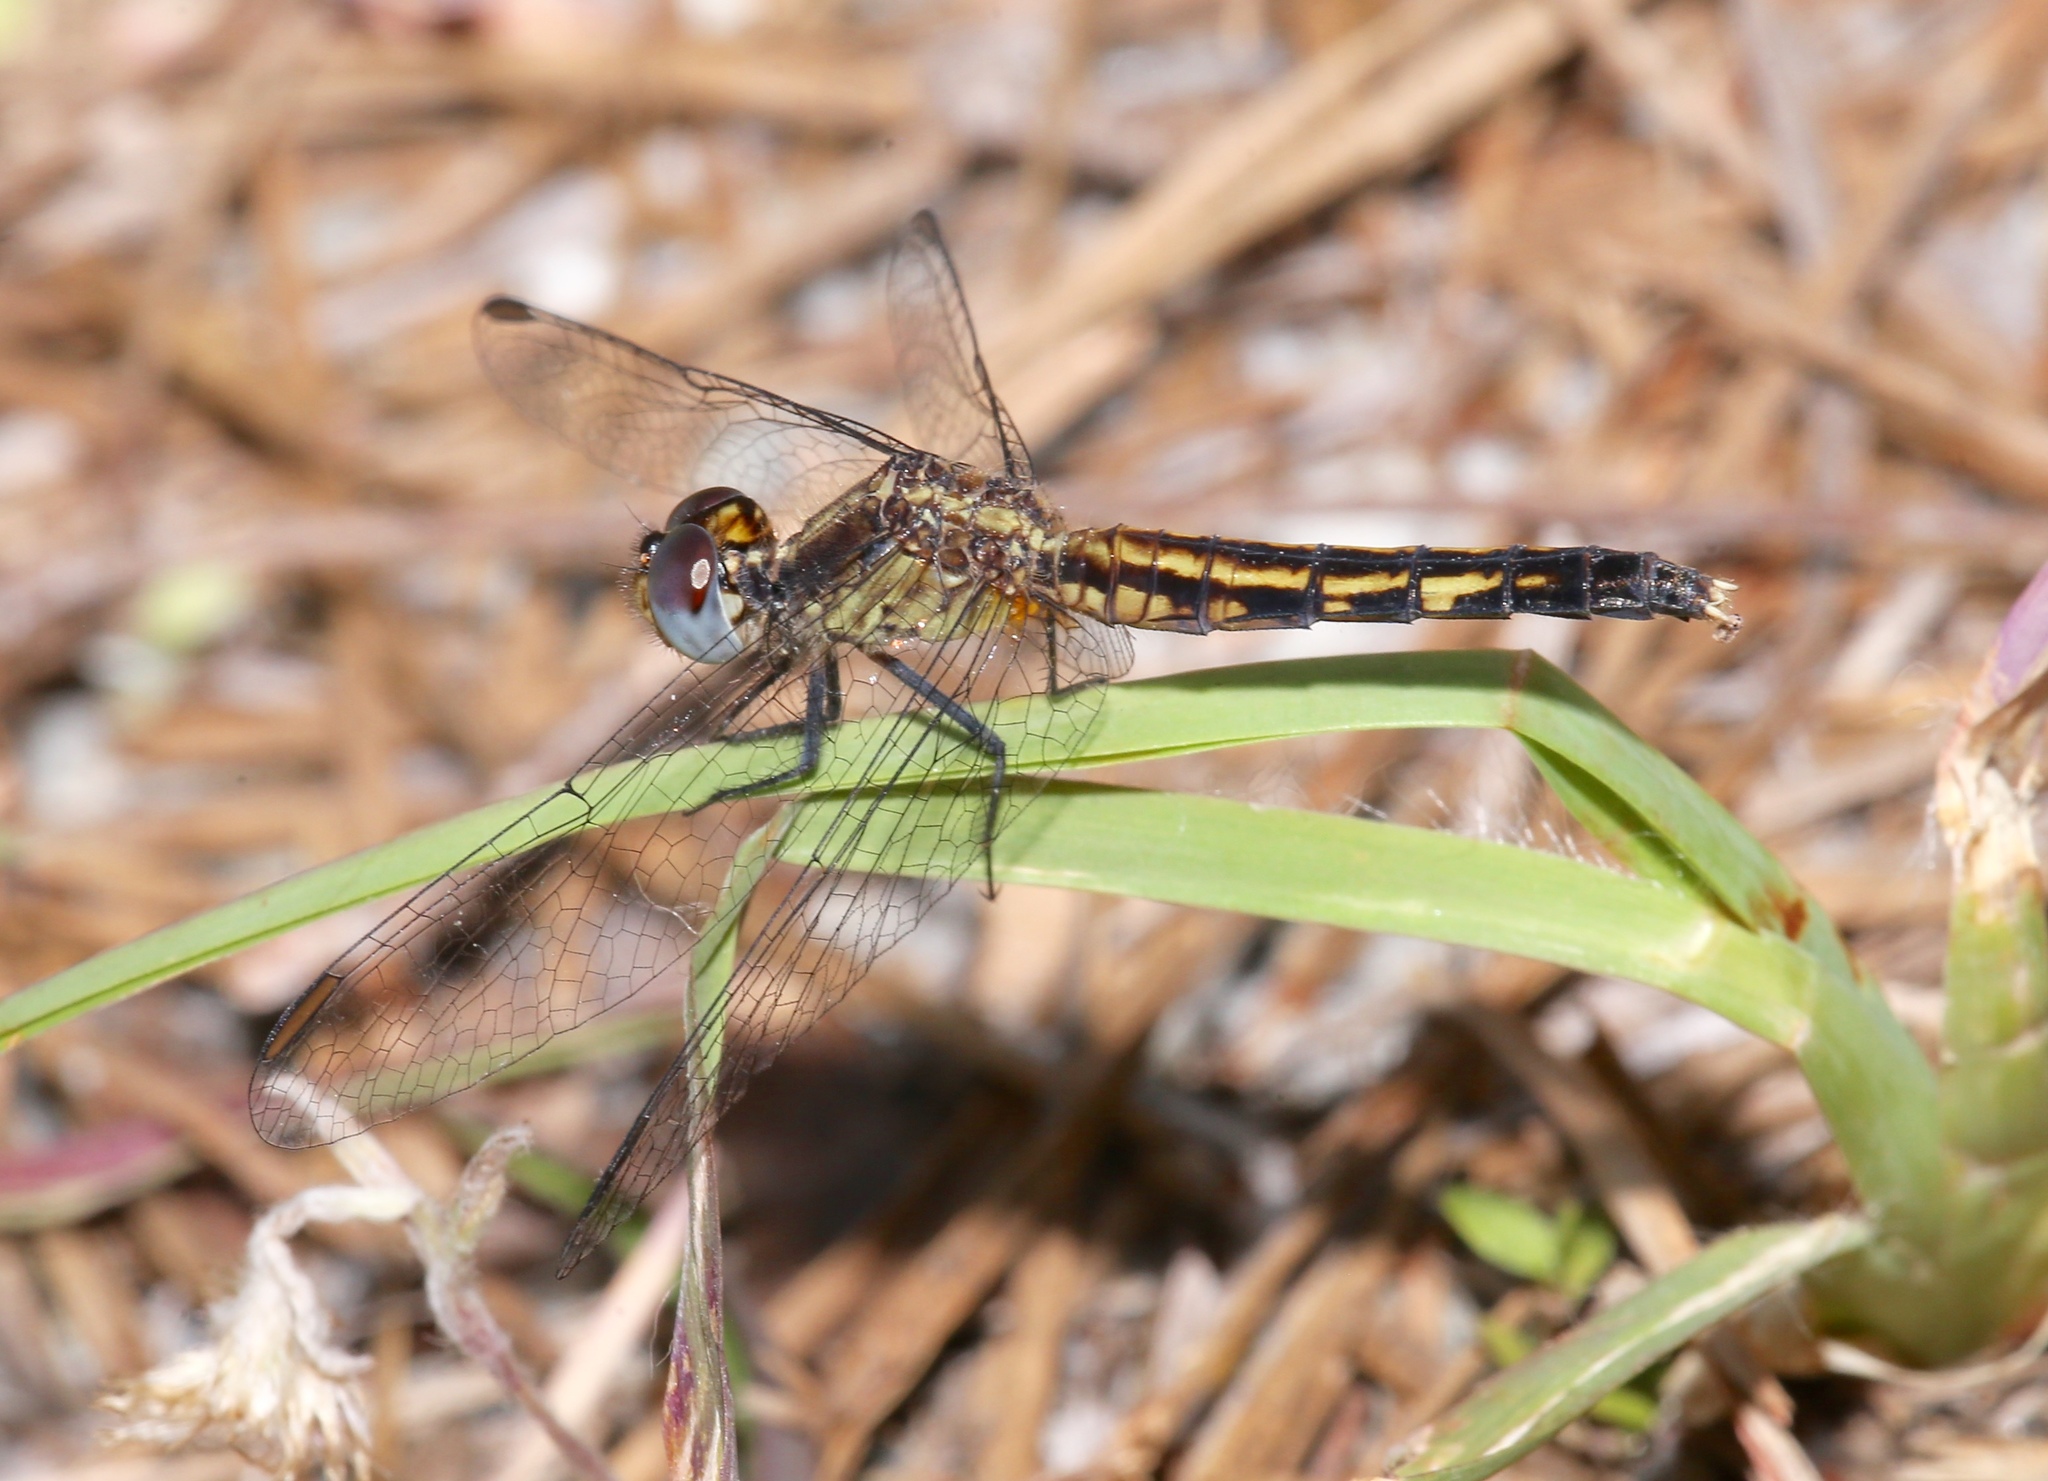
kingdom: Animalia
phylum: Arthropoda
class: Insecta
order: Odonata
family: Libellulidae
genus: Erythrodiplax
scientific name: Erythrodiplax minuscula
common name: Little blue dragonlet
